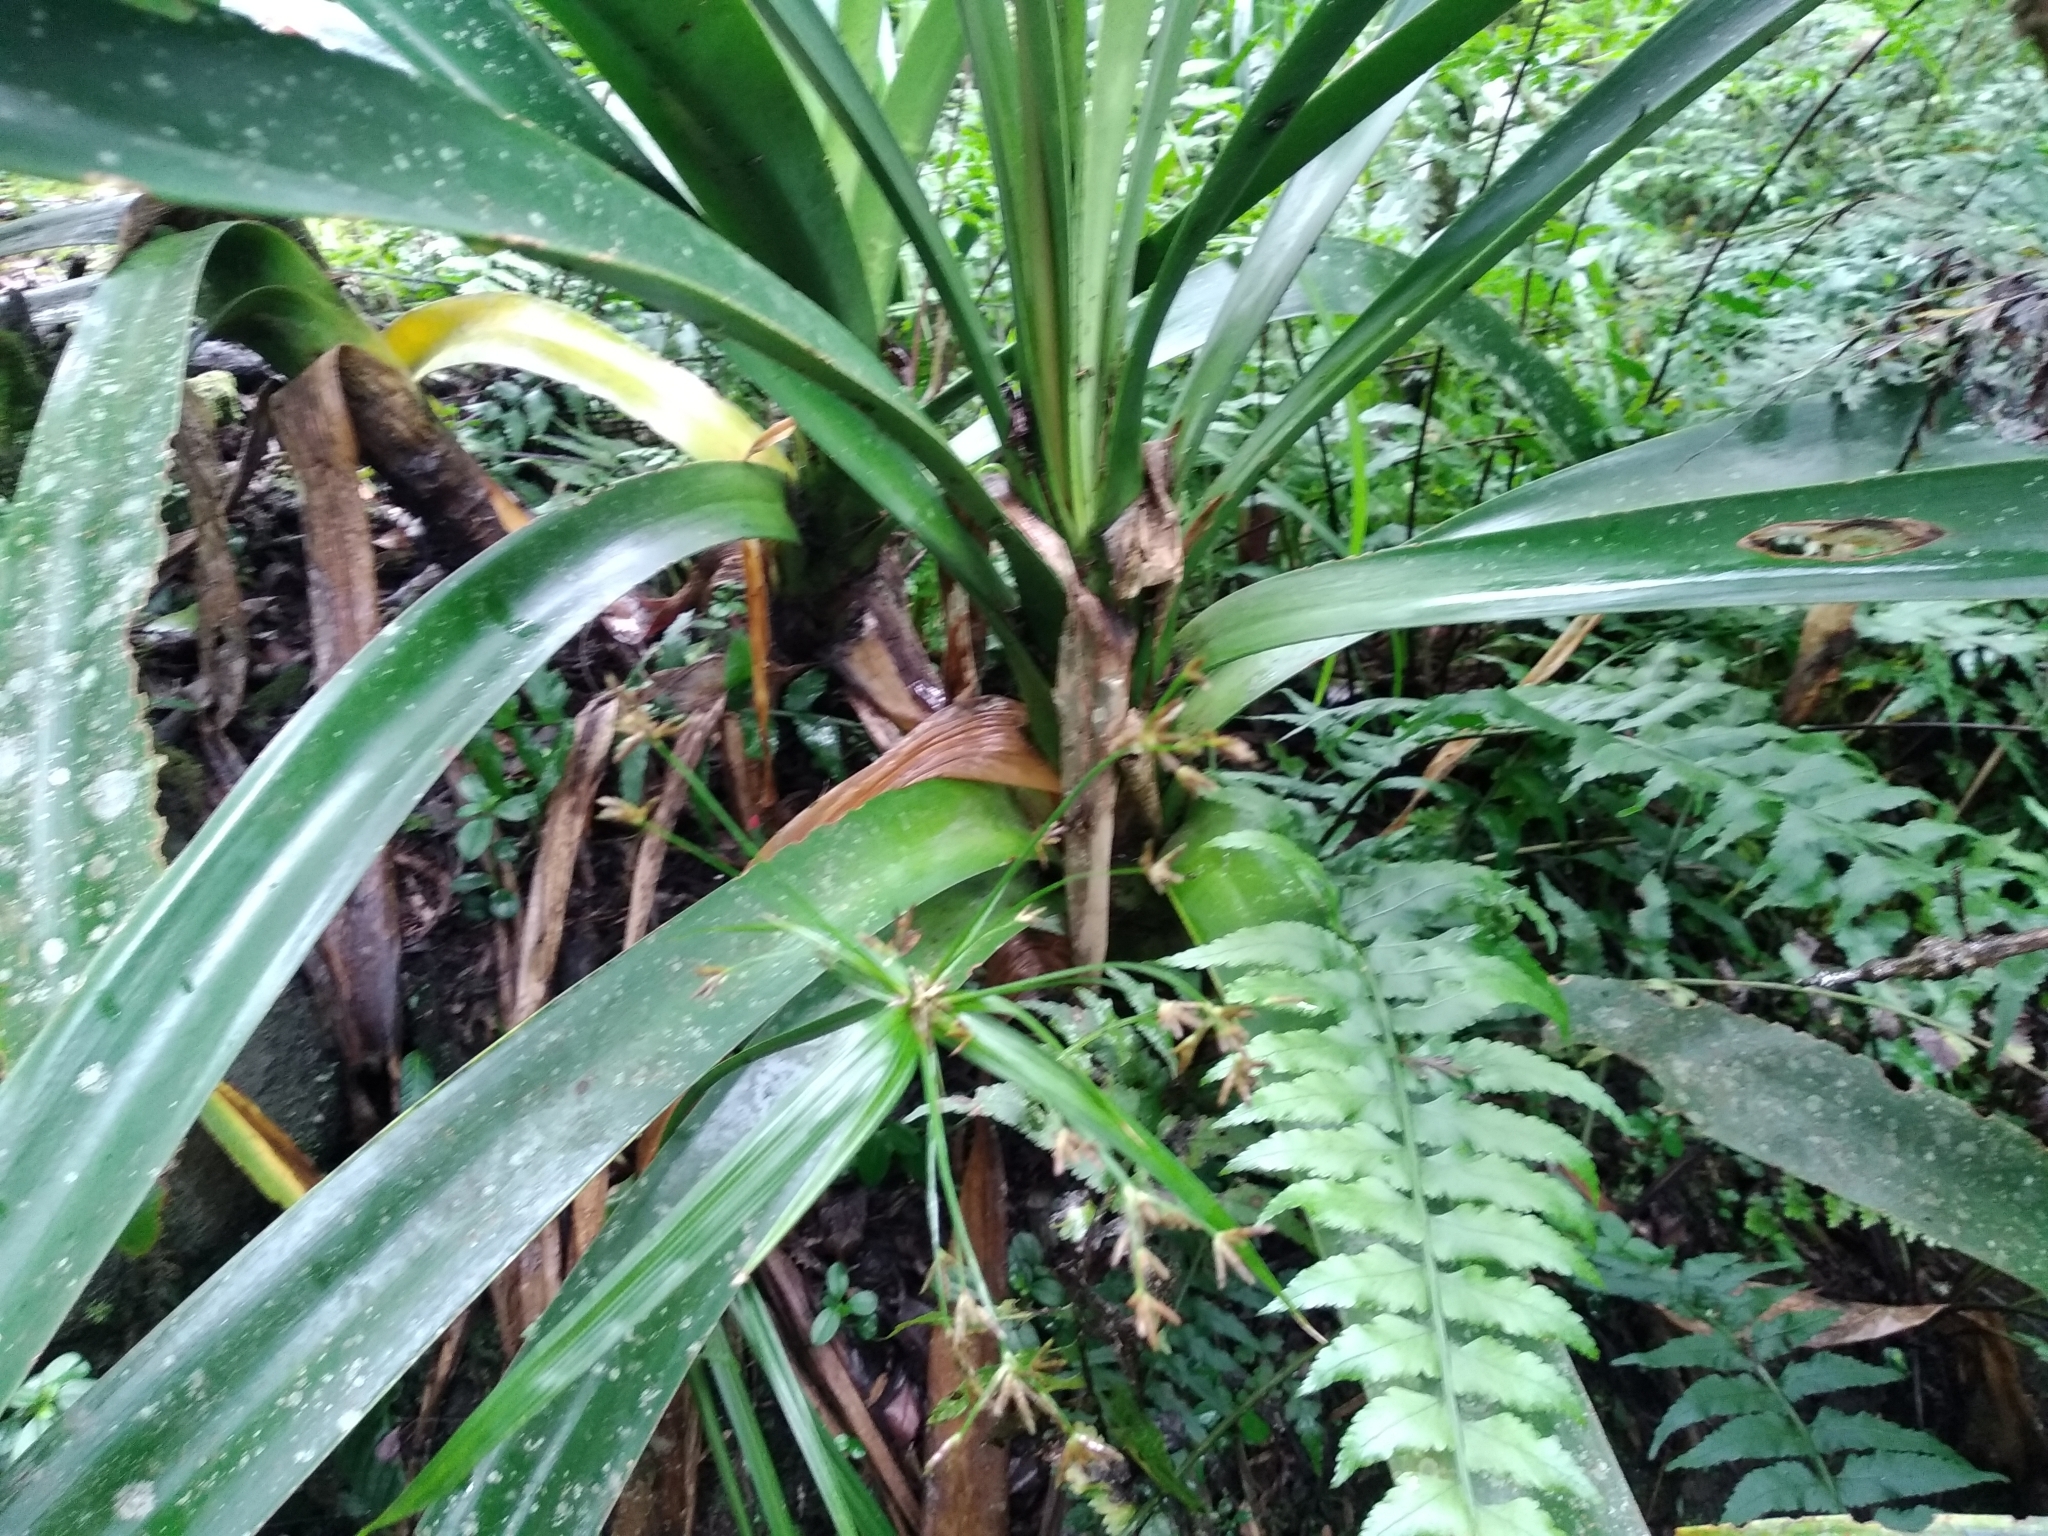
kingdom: Plantae
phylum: Tracheophyta
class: Liliopsida
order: Asparagales
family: Amaryllidaceae
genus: Clivia
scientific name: Clivia caulescens
